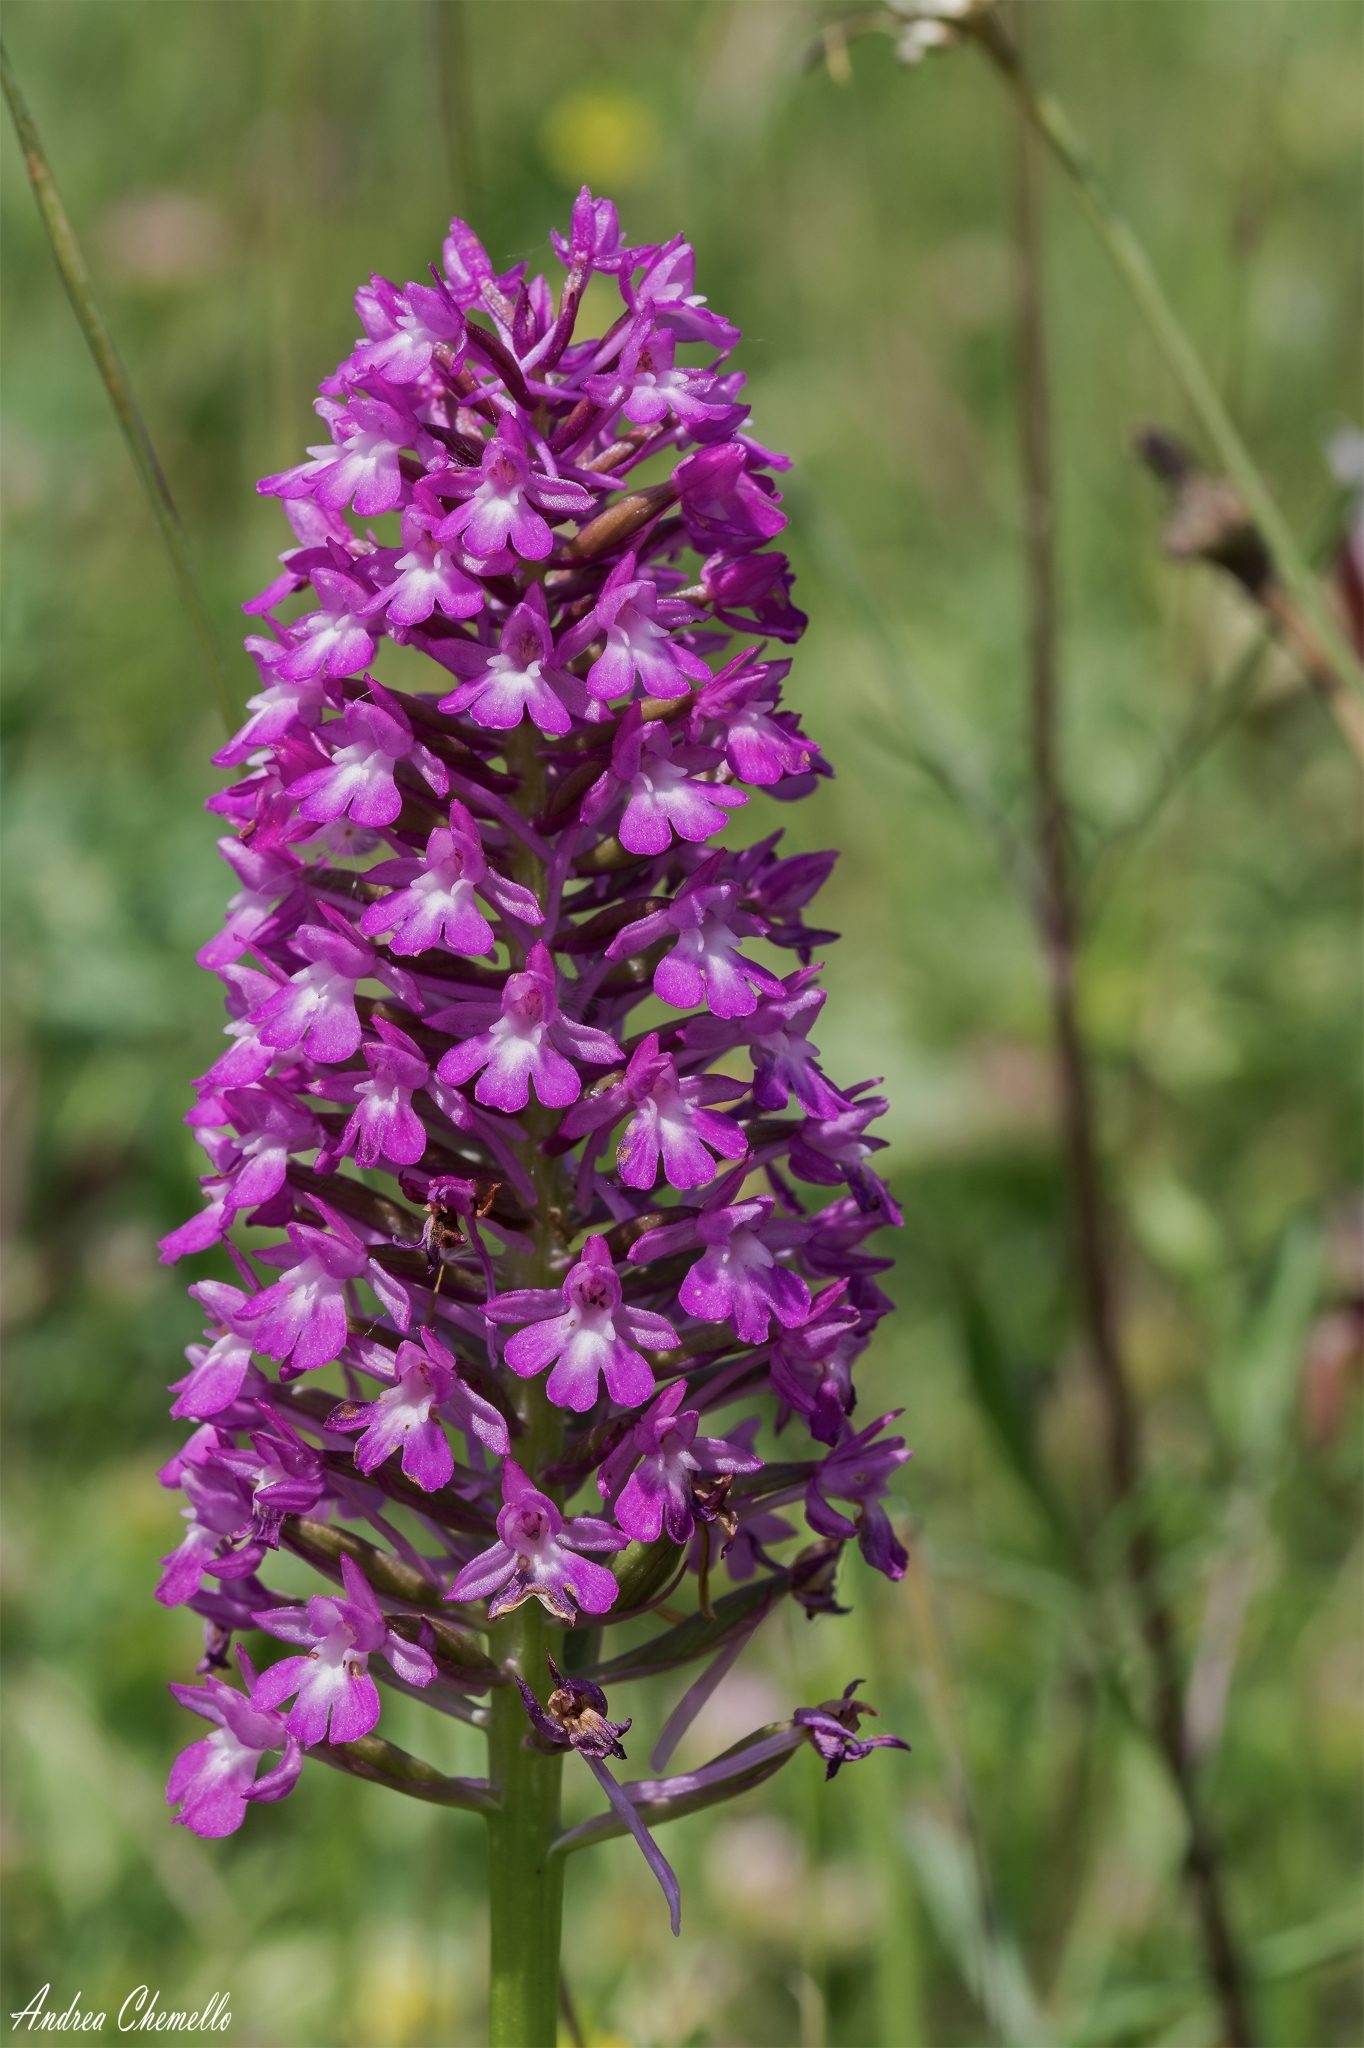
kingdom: Plantae
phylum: Tracheophyta
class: Liliopsida
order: Asparagales
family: Orchidaceae
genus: Anacamptis
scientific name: Anacamptis pyramidalis
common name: Pyramidal orchid
